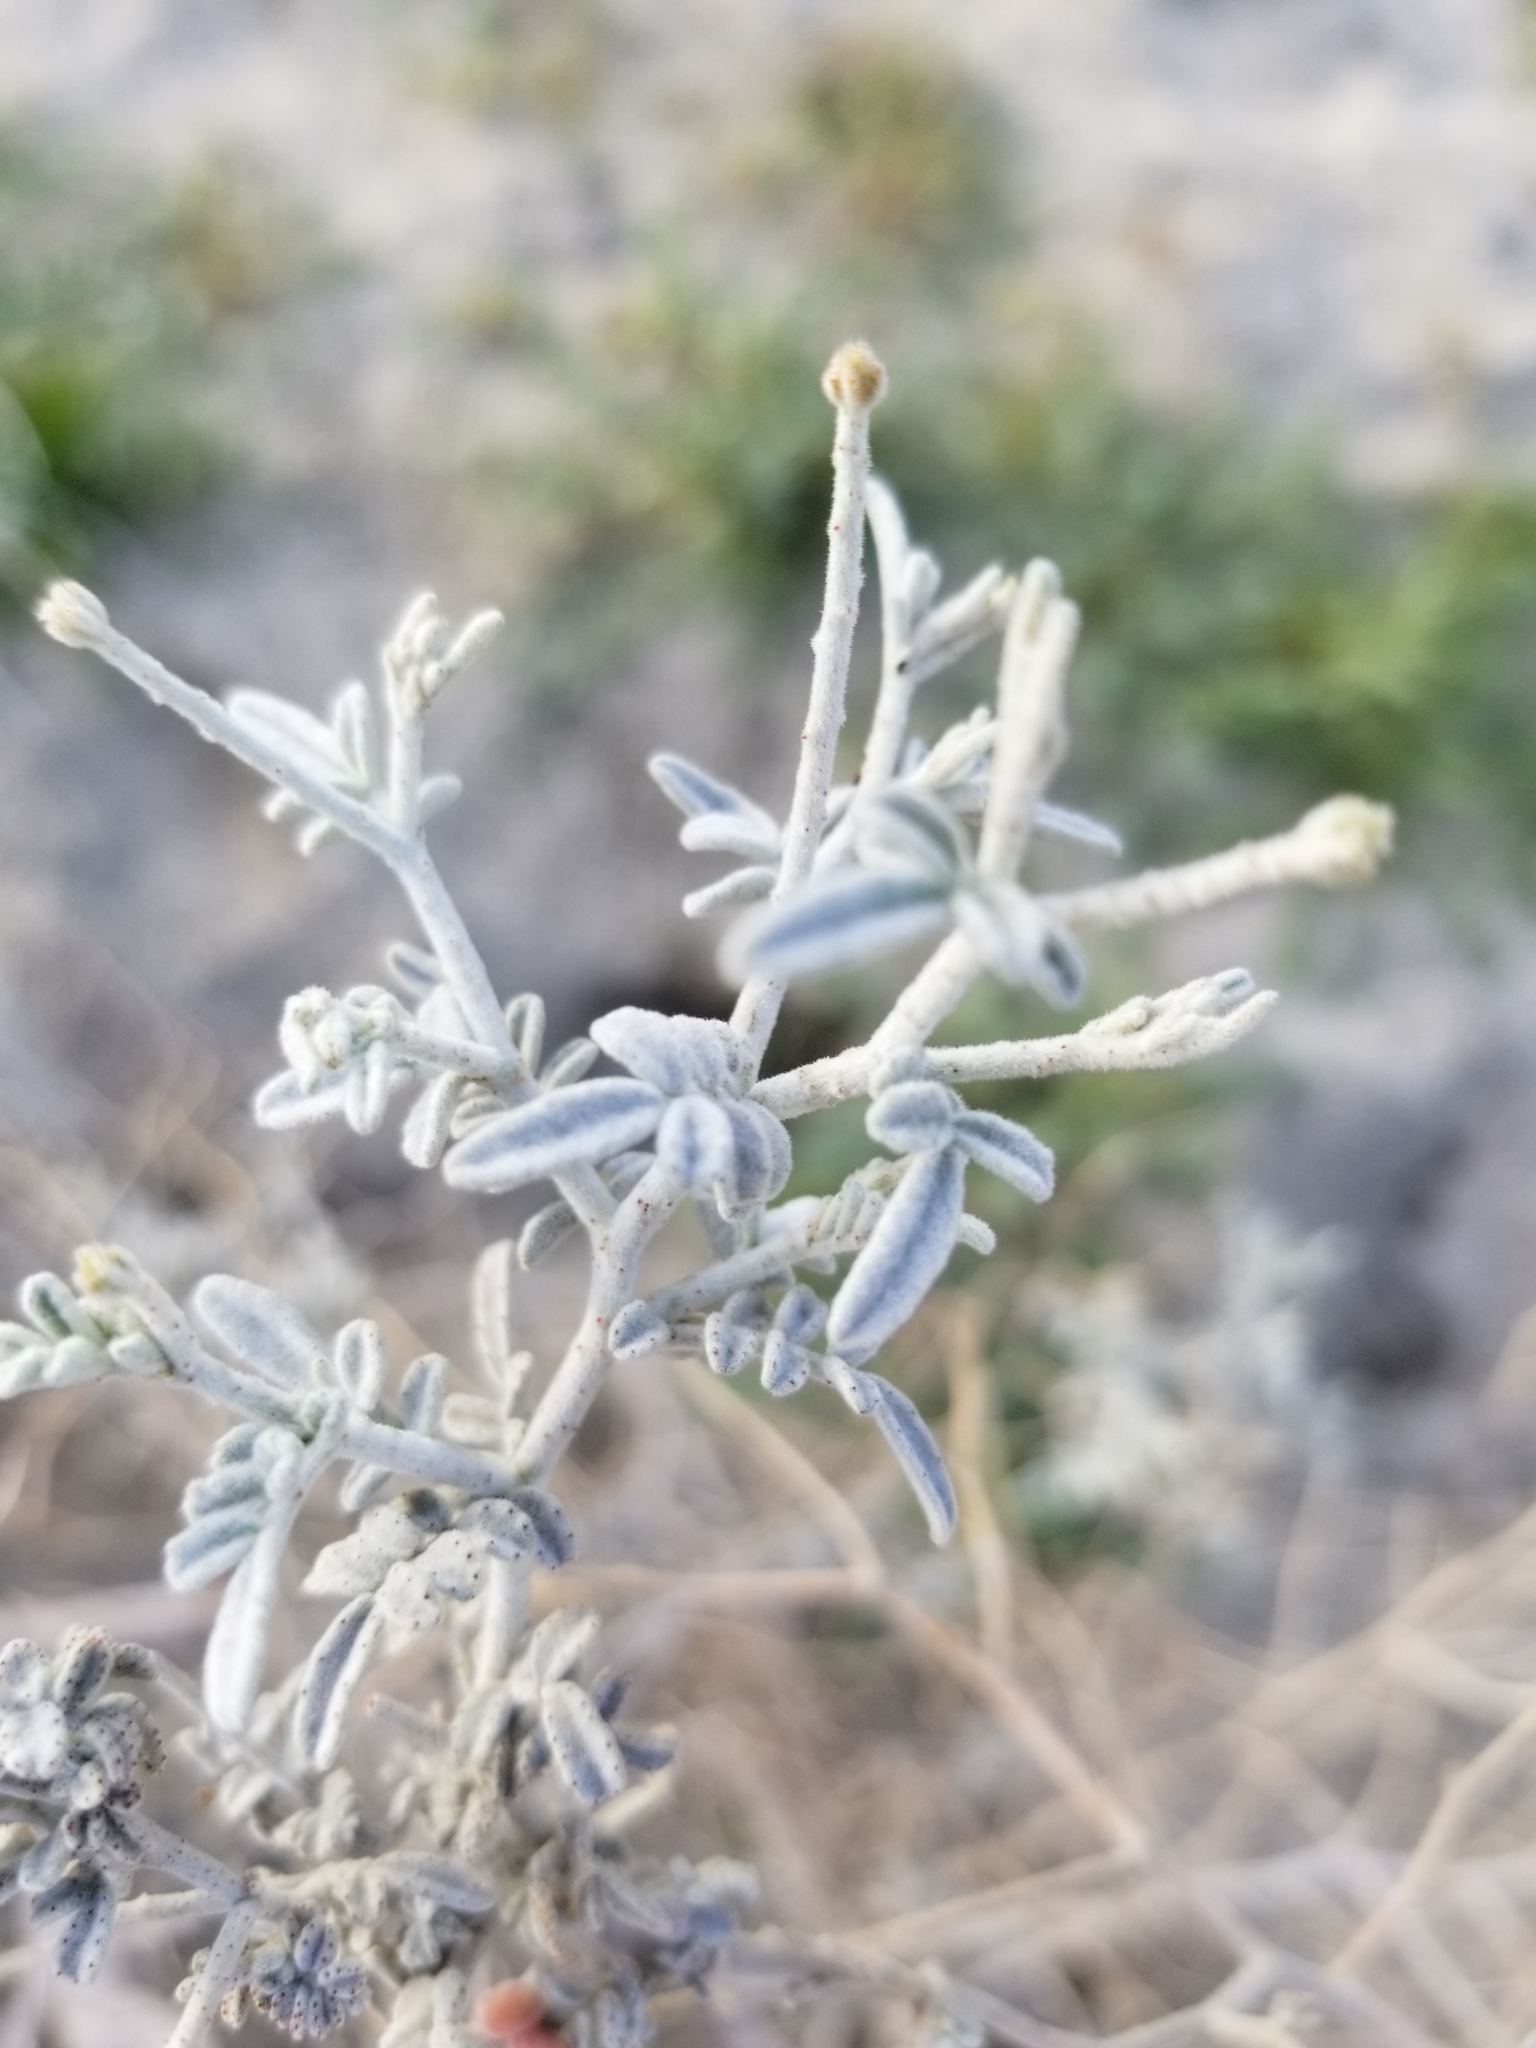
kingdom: Plantae
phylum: Tracheophyta
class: Magnoliopsida
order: Fabales
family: Fabaceae
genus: Psorothamnus
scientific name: Psorothamnus emoryi
